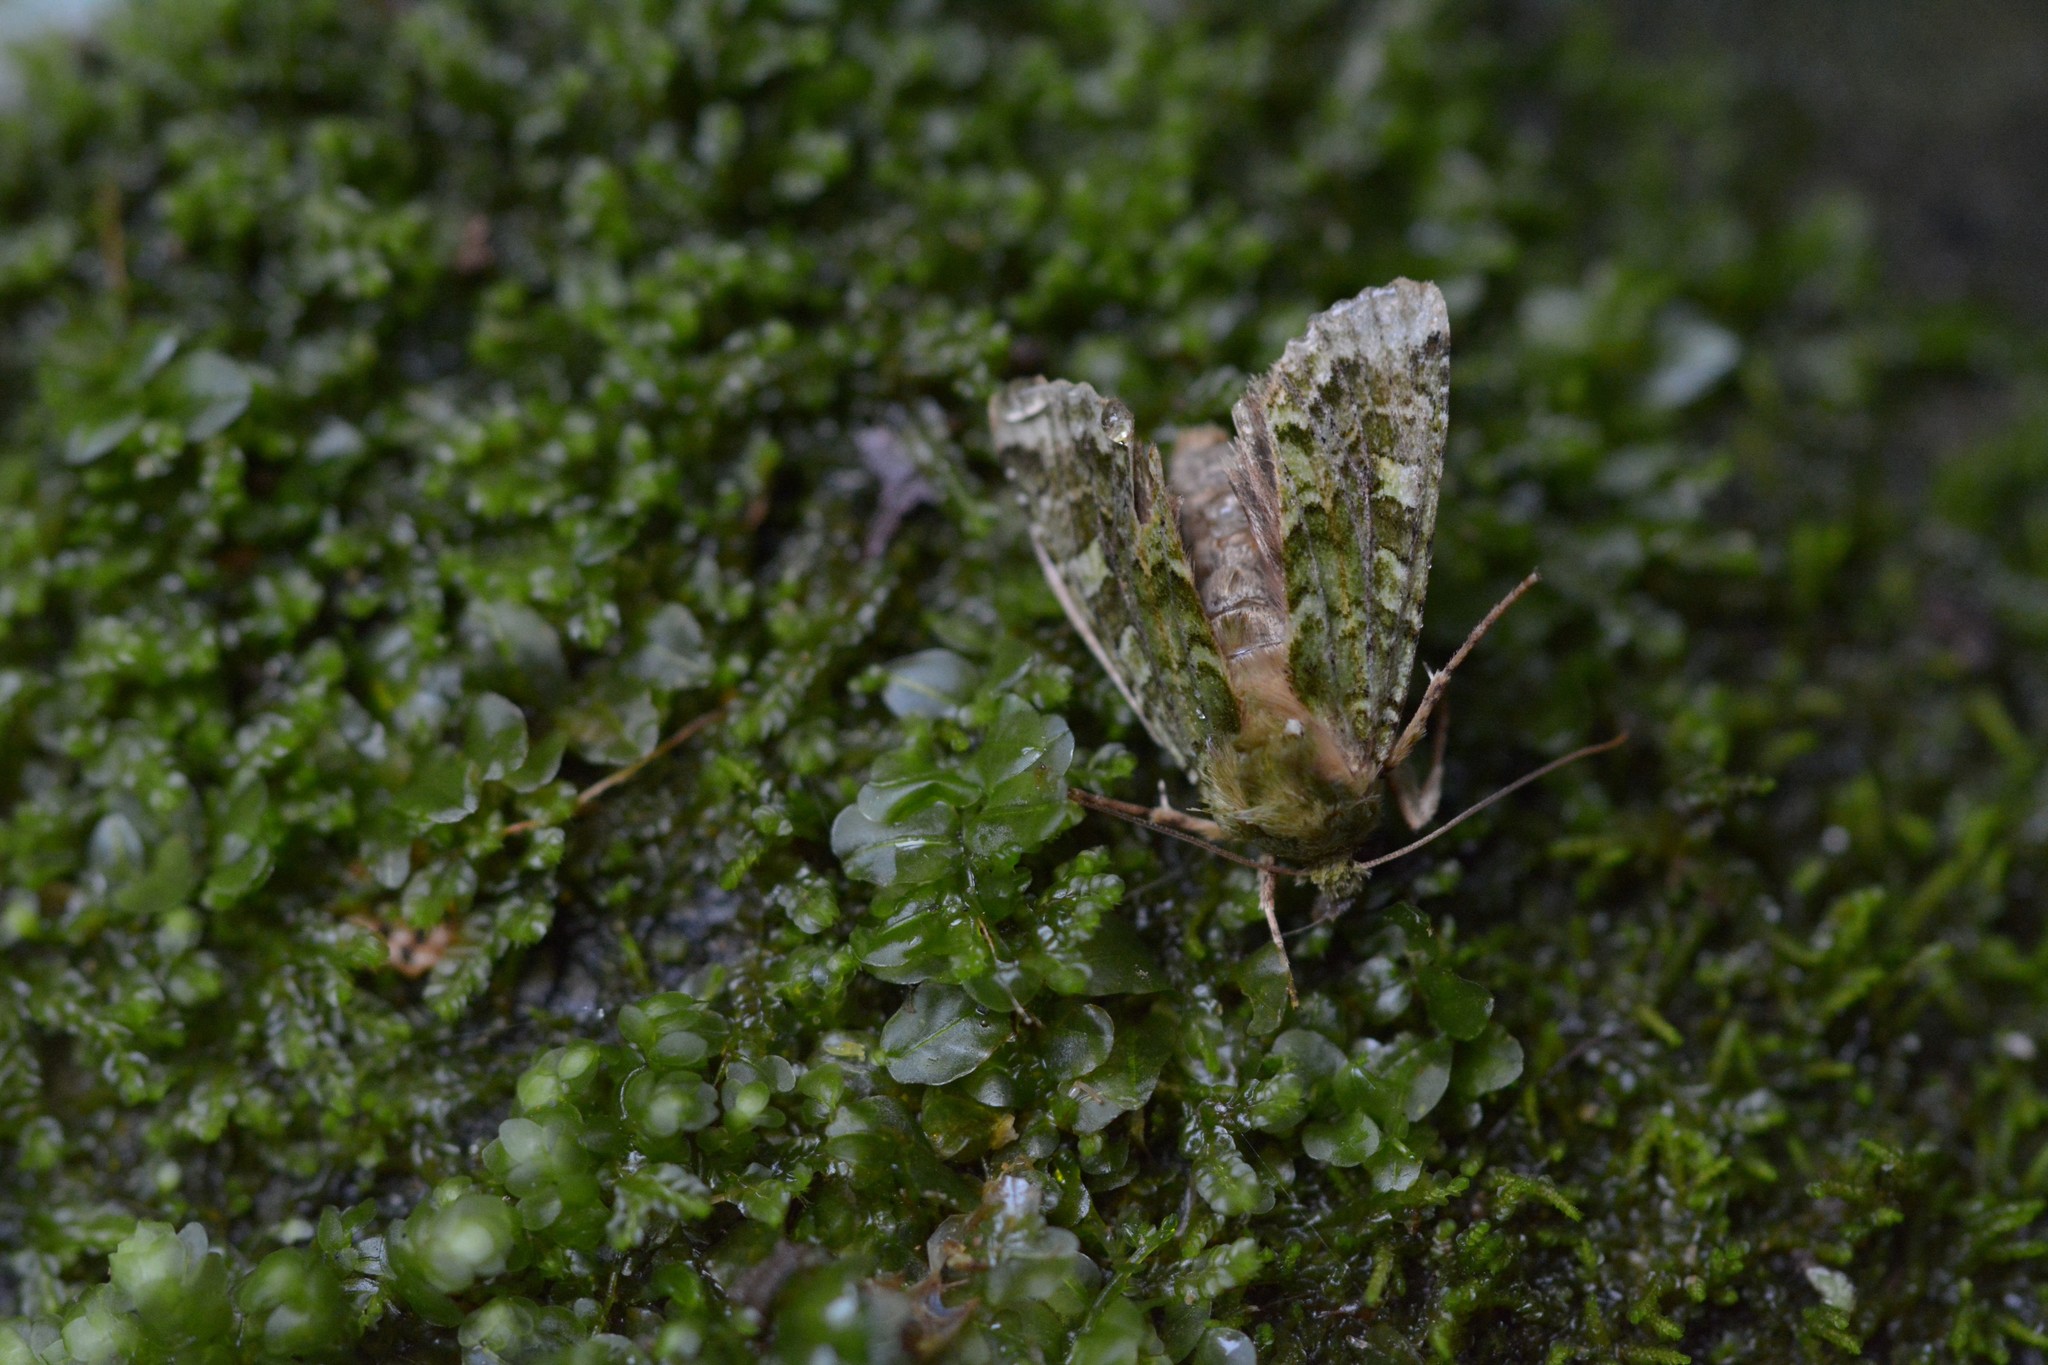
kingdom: Animalia
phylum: Arthropoda
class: Insecta
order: Lepidoptera
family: Noctuidae
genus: Feredayia
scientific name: Feredayia grammosa
